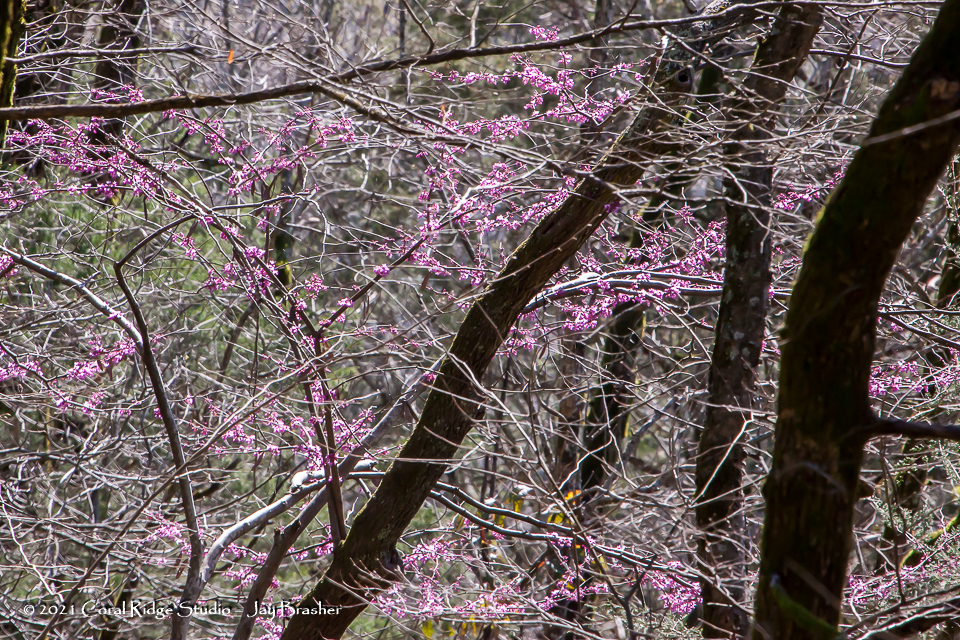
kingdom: Plantae
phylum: Tracheophyta
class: Magnoliopsida
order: Fabales
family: Fabaceae
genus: Cercis
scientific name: Cercis canadensis
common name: Eastern redbud
